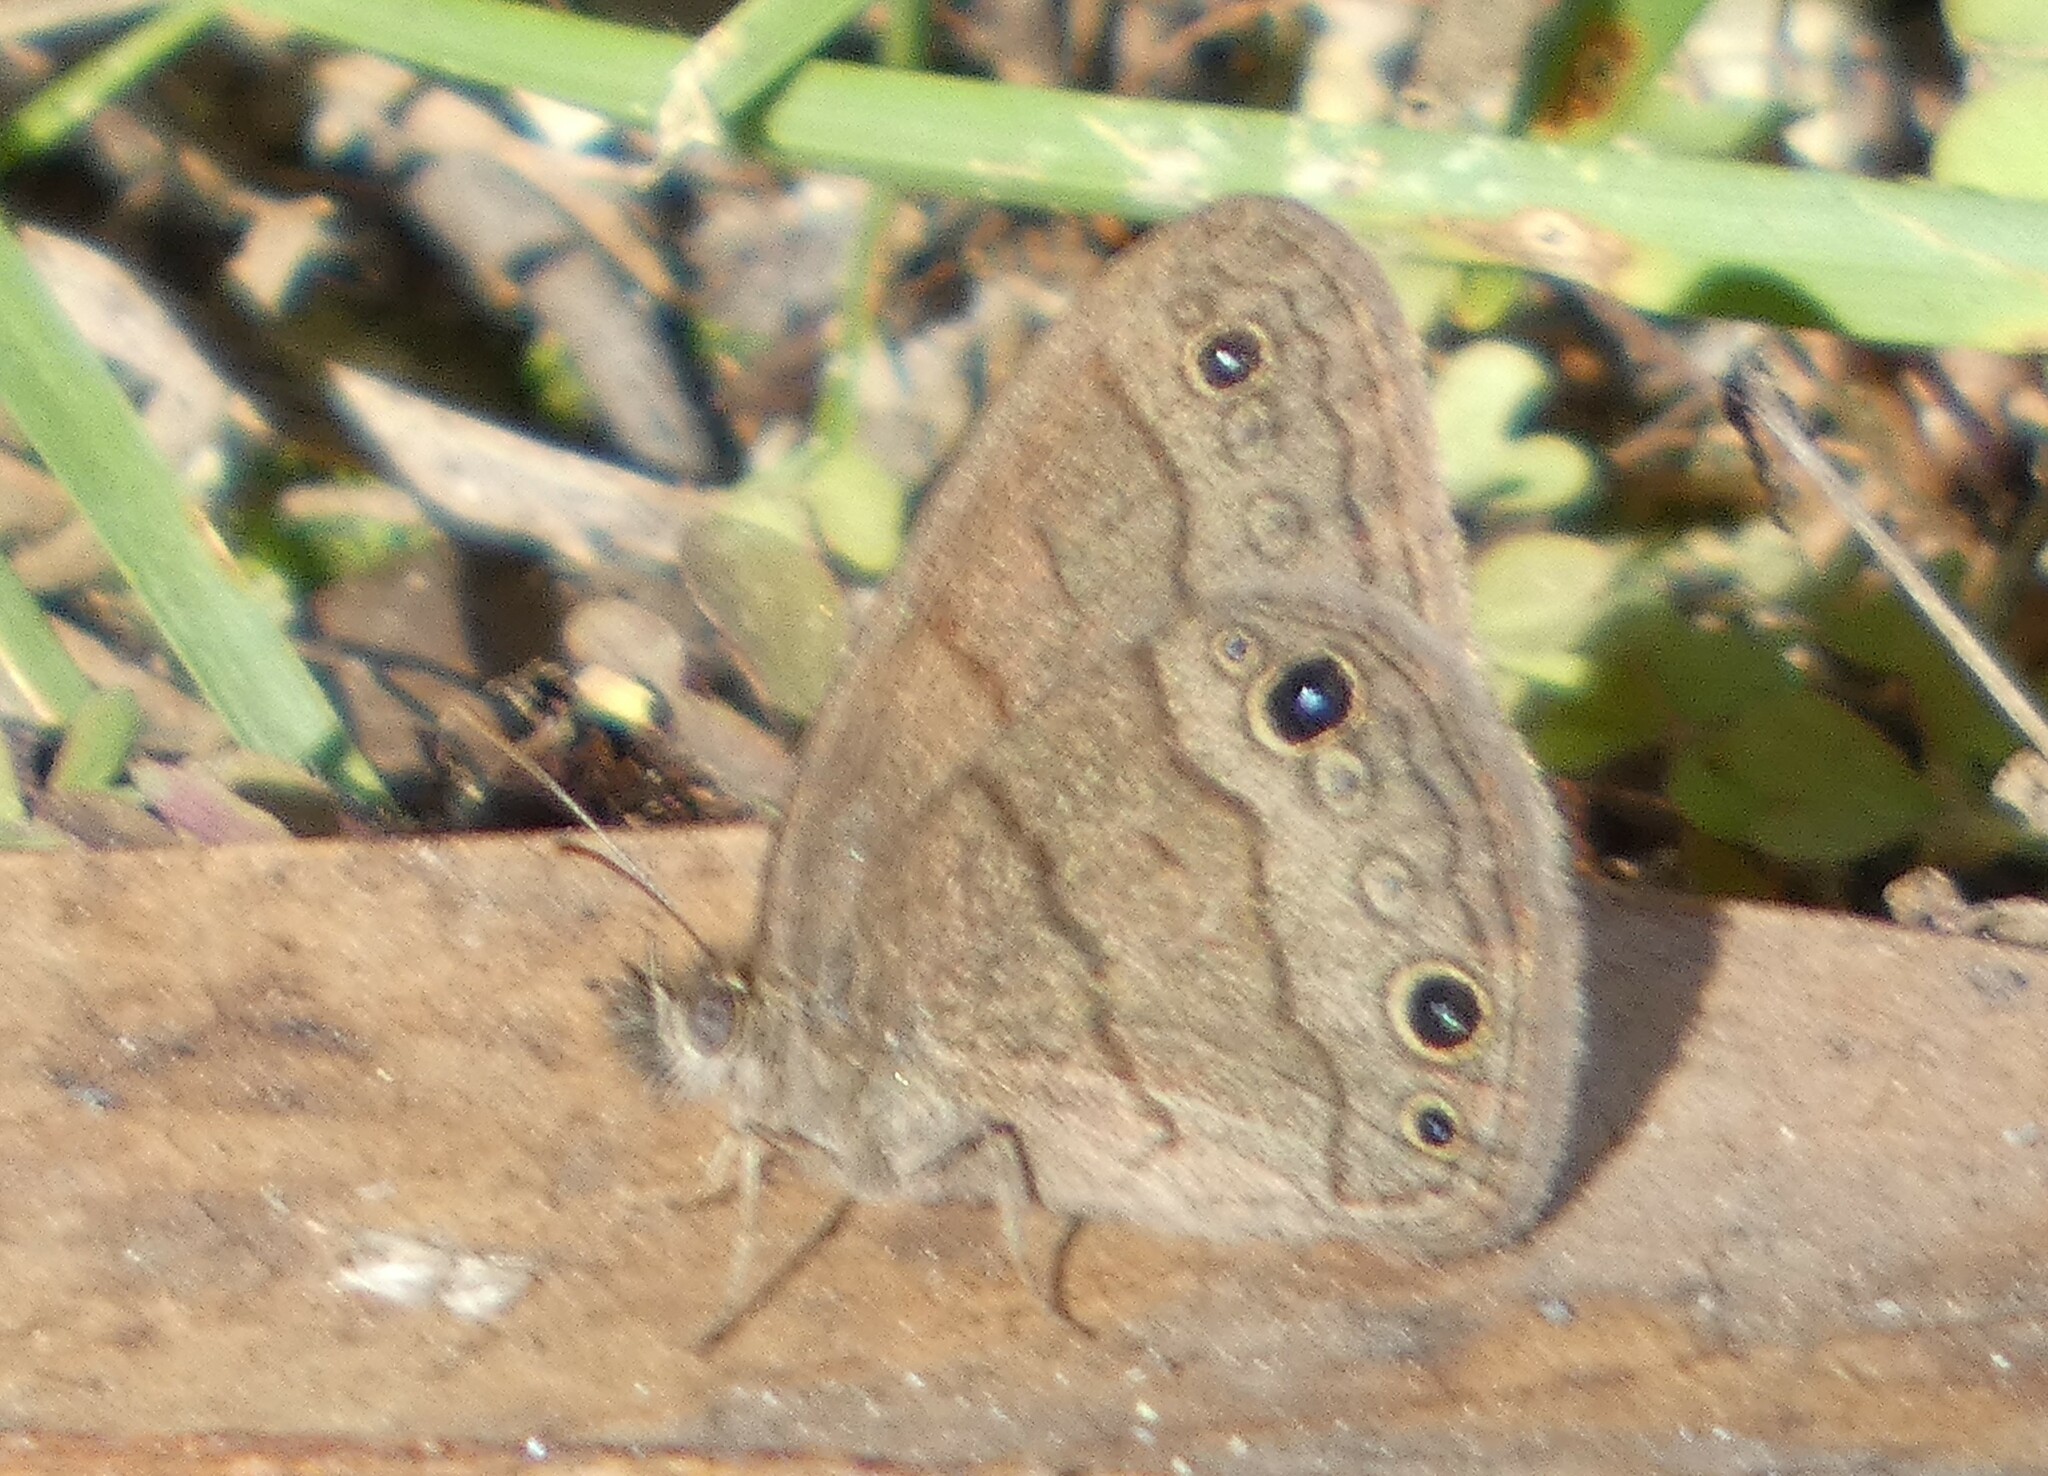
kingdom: Animalia
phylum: Arthropoda
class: Insecta
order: Lepidoptera
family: Nymphalidae
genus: Hermeuptychia
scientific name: Hermeuptychia hermes
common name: Hermes satyr
